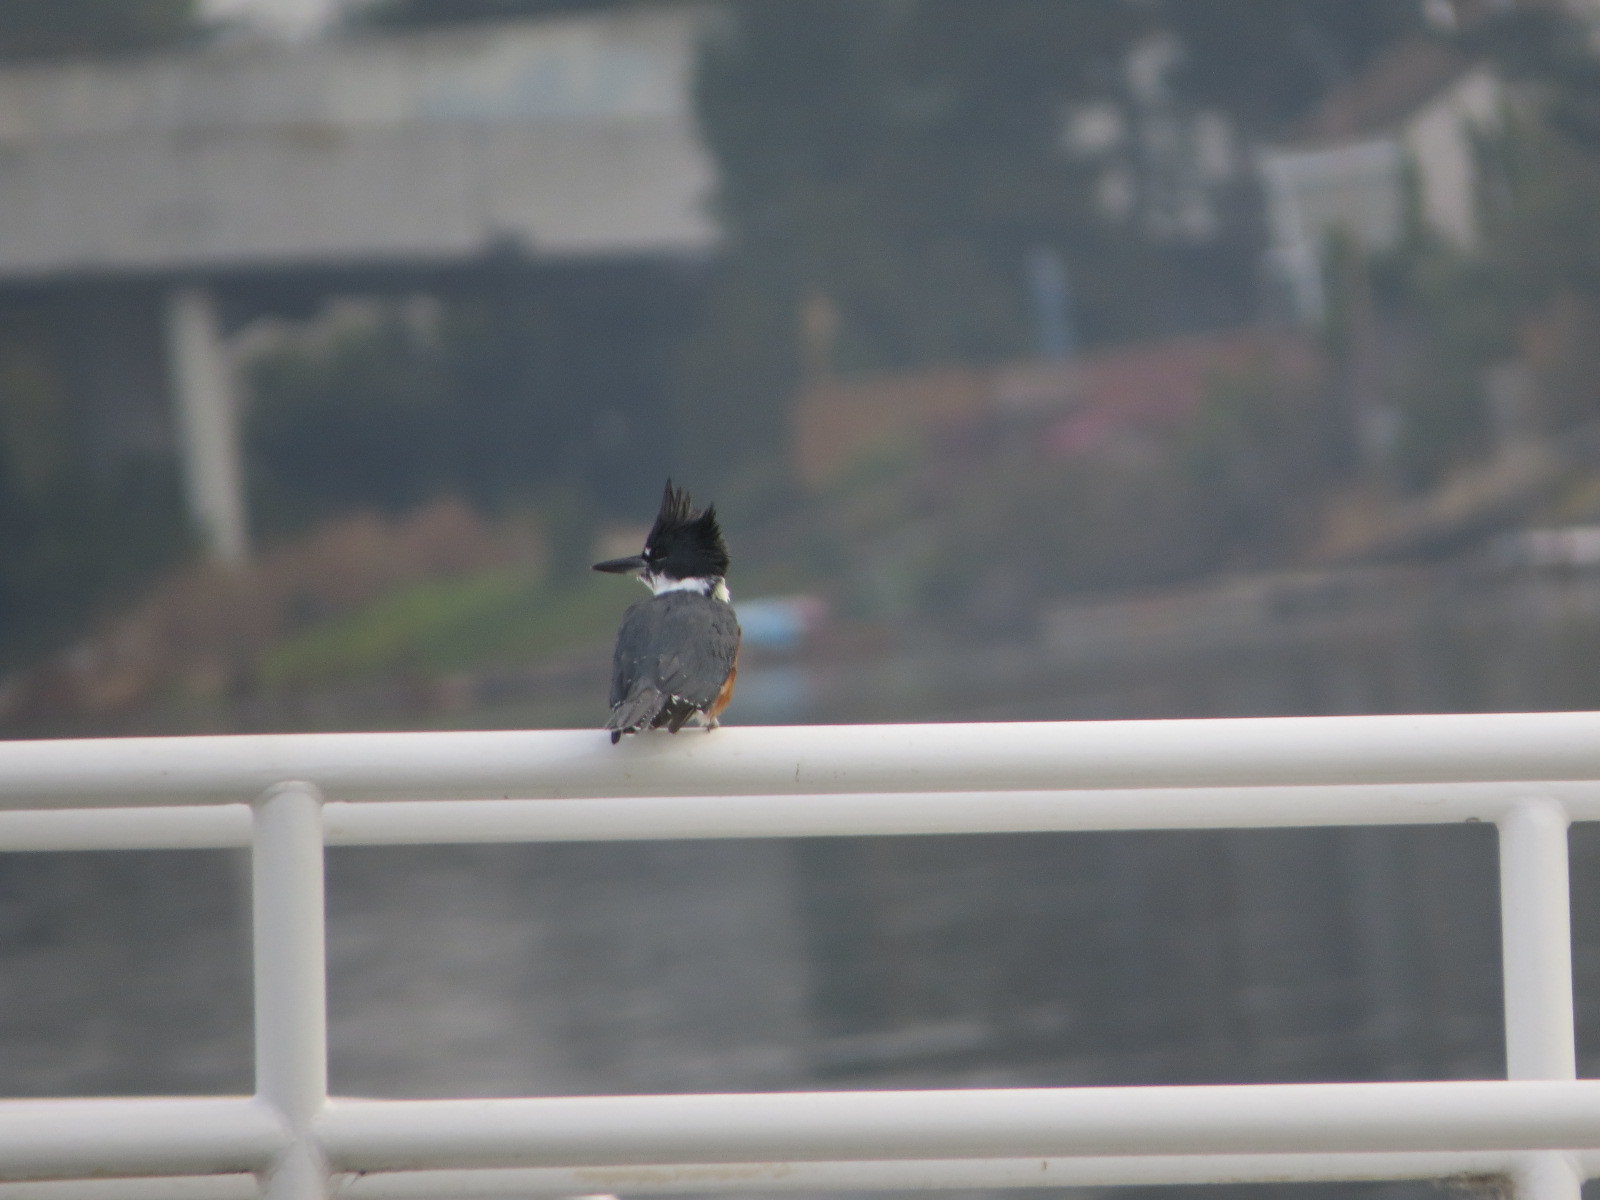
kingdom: Animalia
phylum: Chordata
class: Aves
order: Coraciiformes
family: Alcedinidae
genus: Megaceryle
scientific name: Megaceryle alcyon
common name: Belted kingfisher
